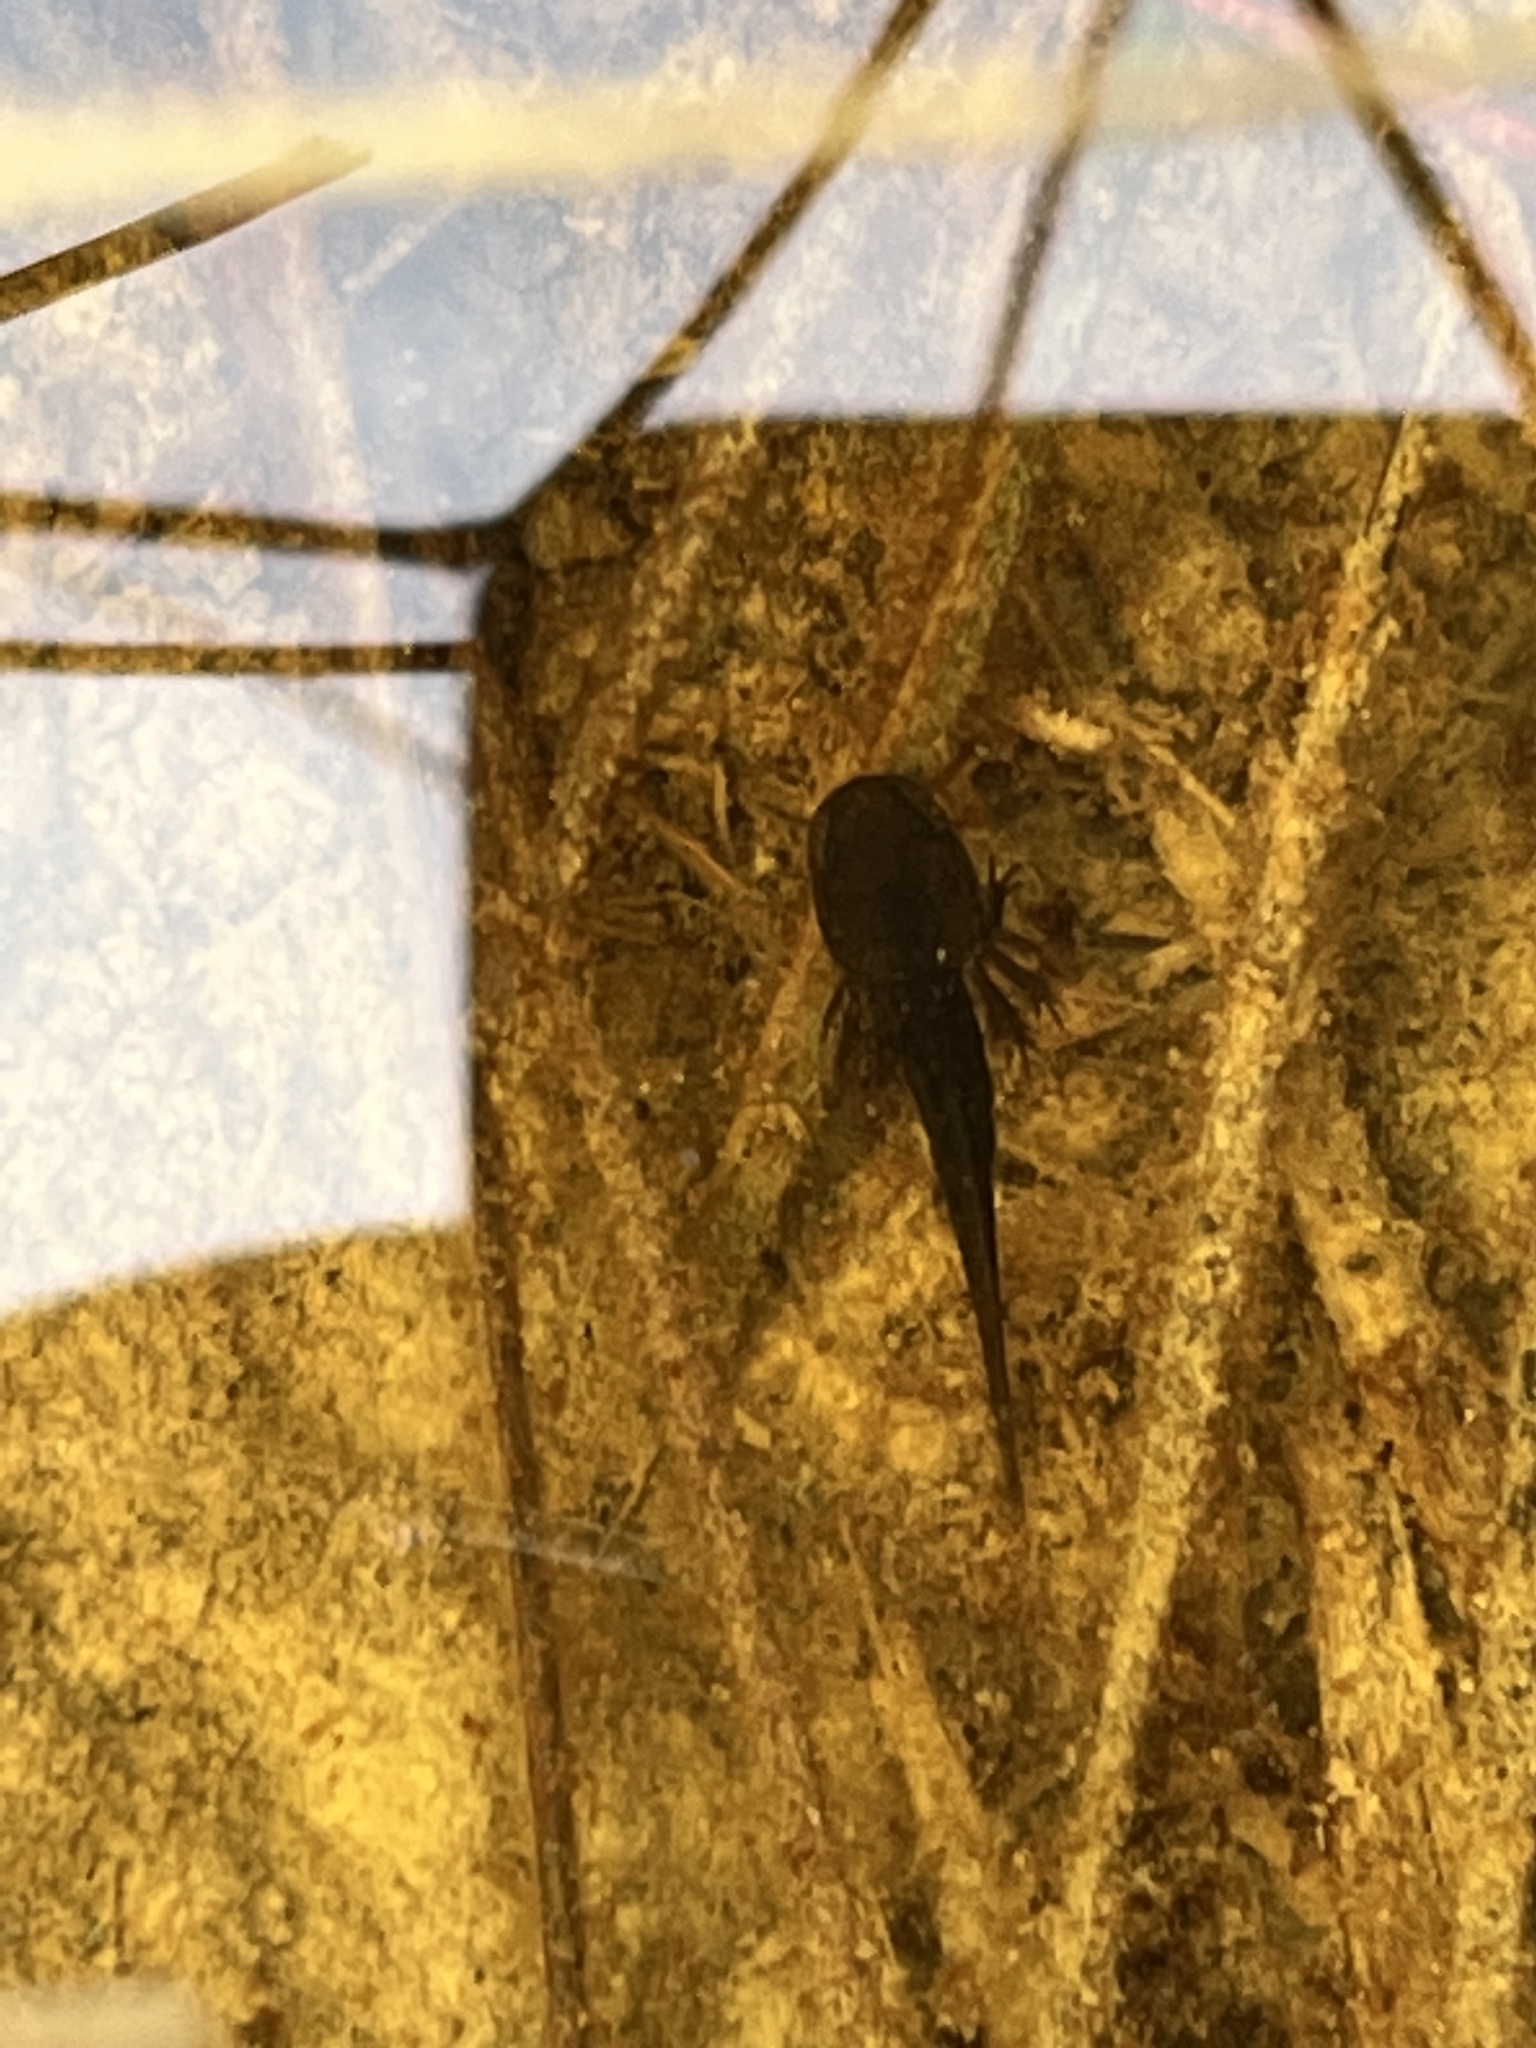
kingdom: Animalia
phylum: Chordata
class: Amphibia
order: Caudata
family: Ambystomatidae
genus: Ambystoma
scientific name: Ambystoma opacum
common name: Marbled salamander
